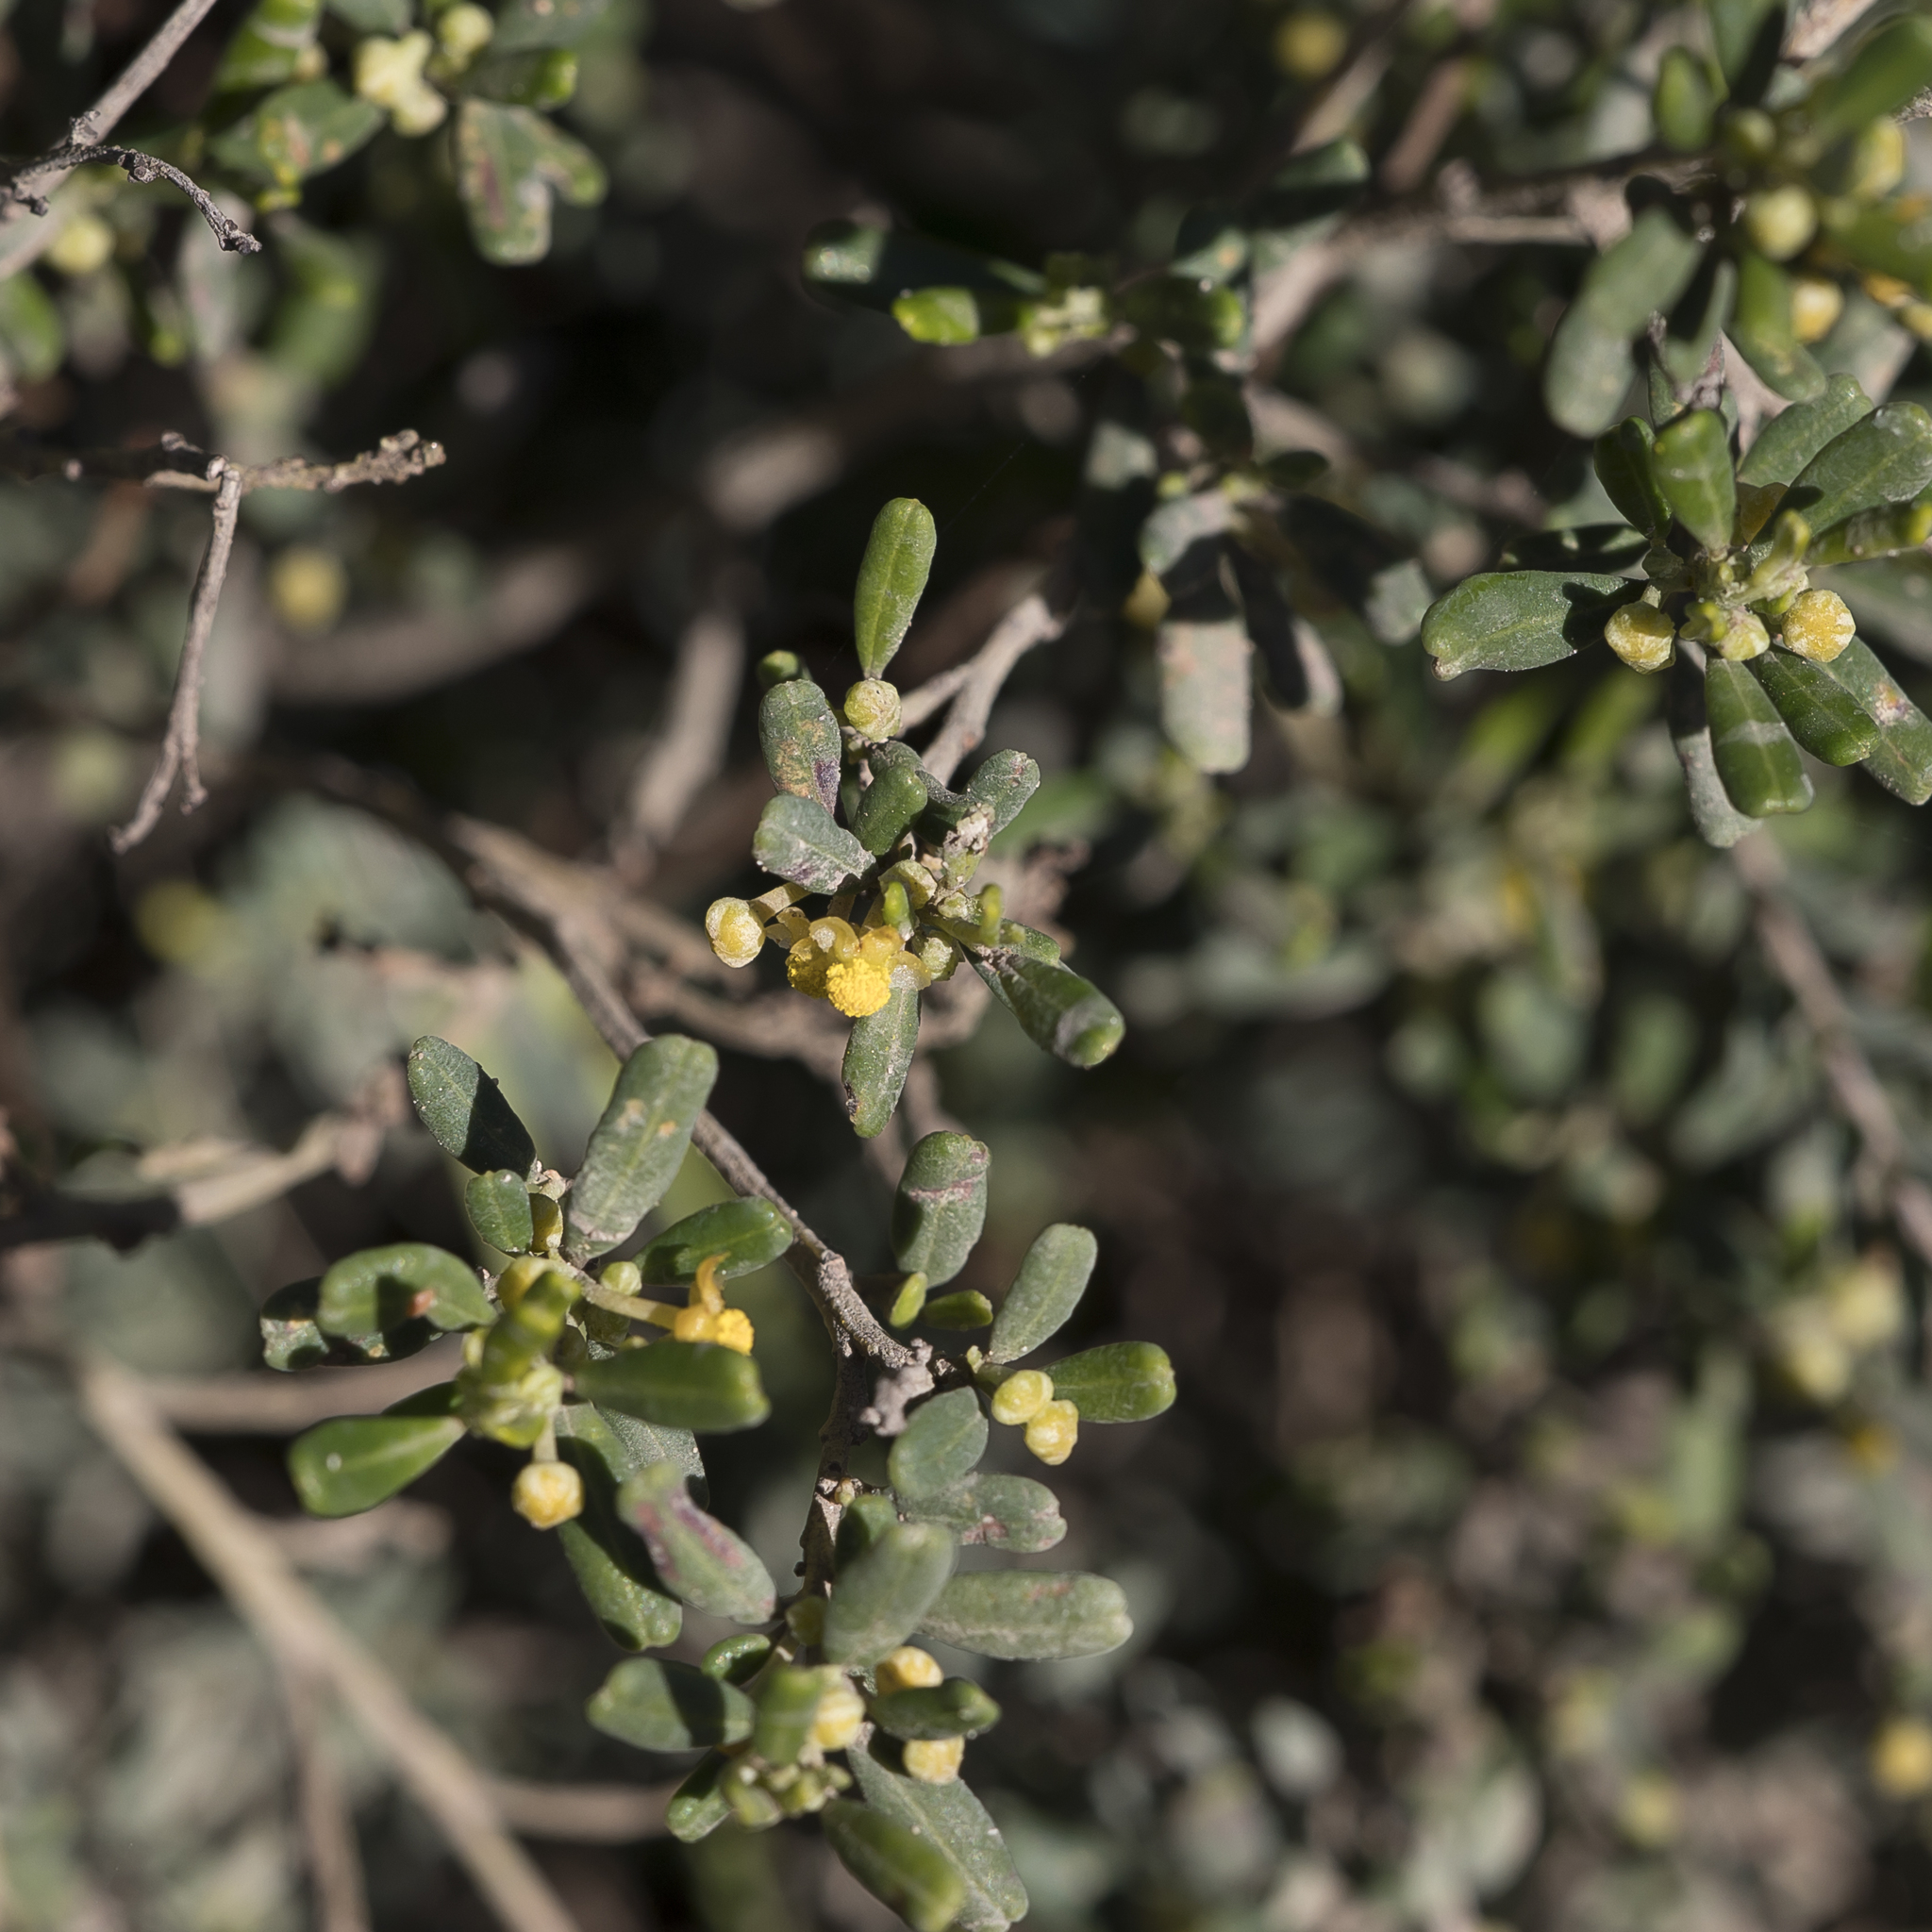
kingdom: Plantae
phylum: Tracheophyta
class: Magnoliopsida
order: Malpighiales
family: Euphorbiaceae
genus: Beyeria
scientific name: Beyeria lechenaultii
